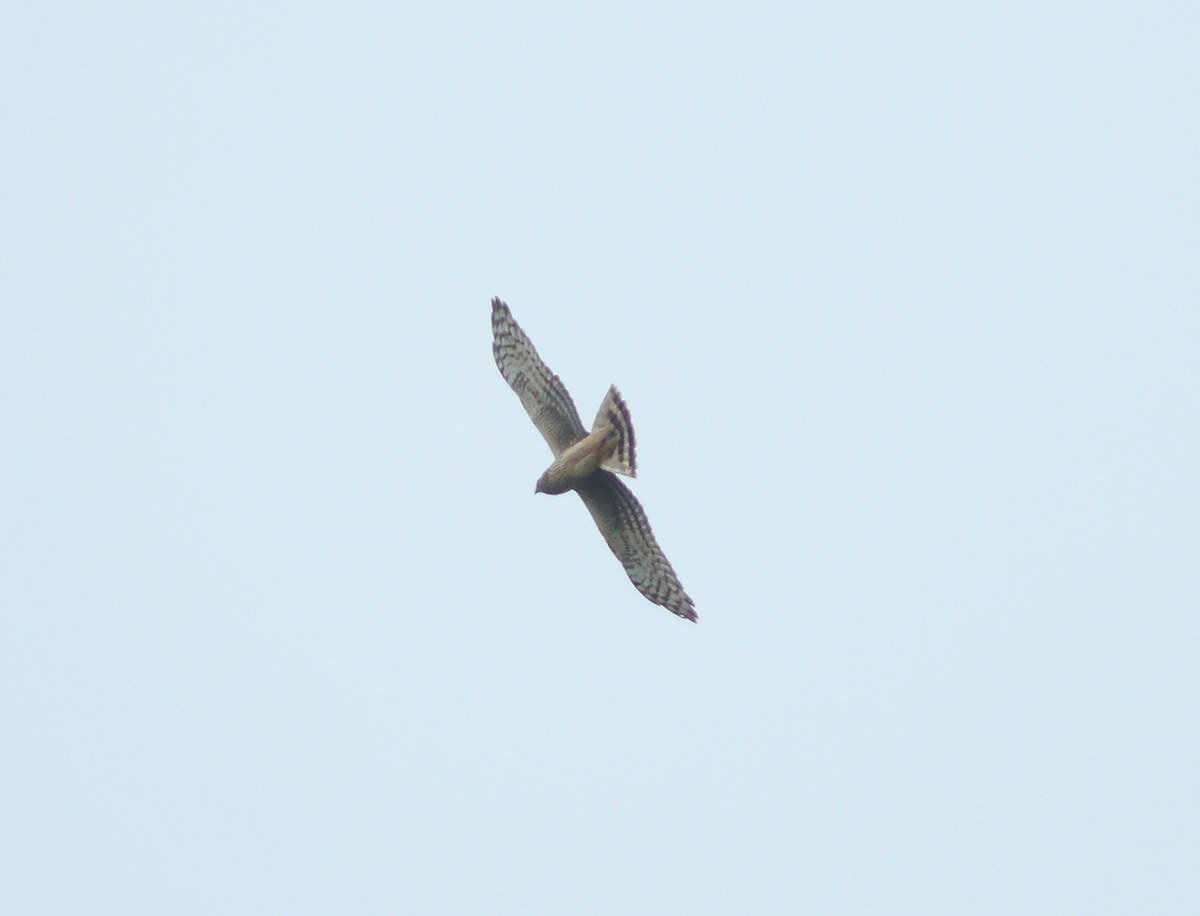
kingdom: Animalia
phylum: Chordata
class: Aves
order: Accipitriformes
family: Accipitridae
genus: Circus
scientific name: Circus cyaneus
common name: Hen harrier
